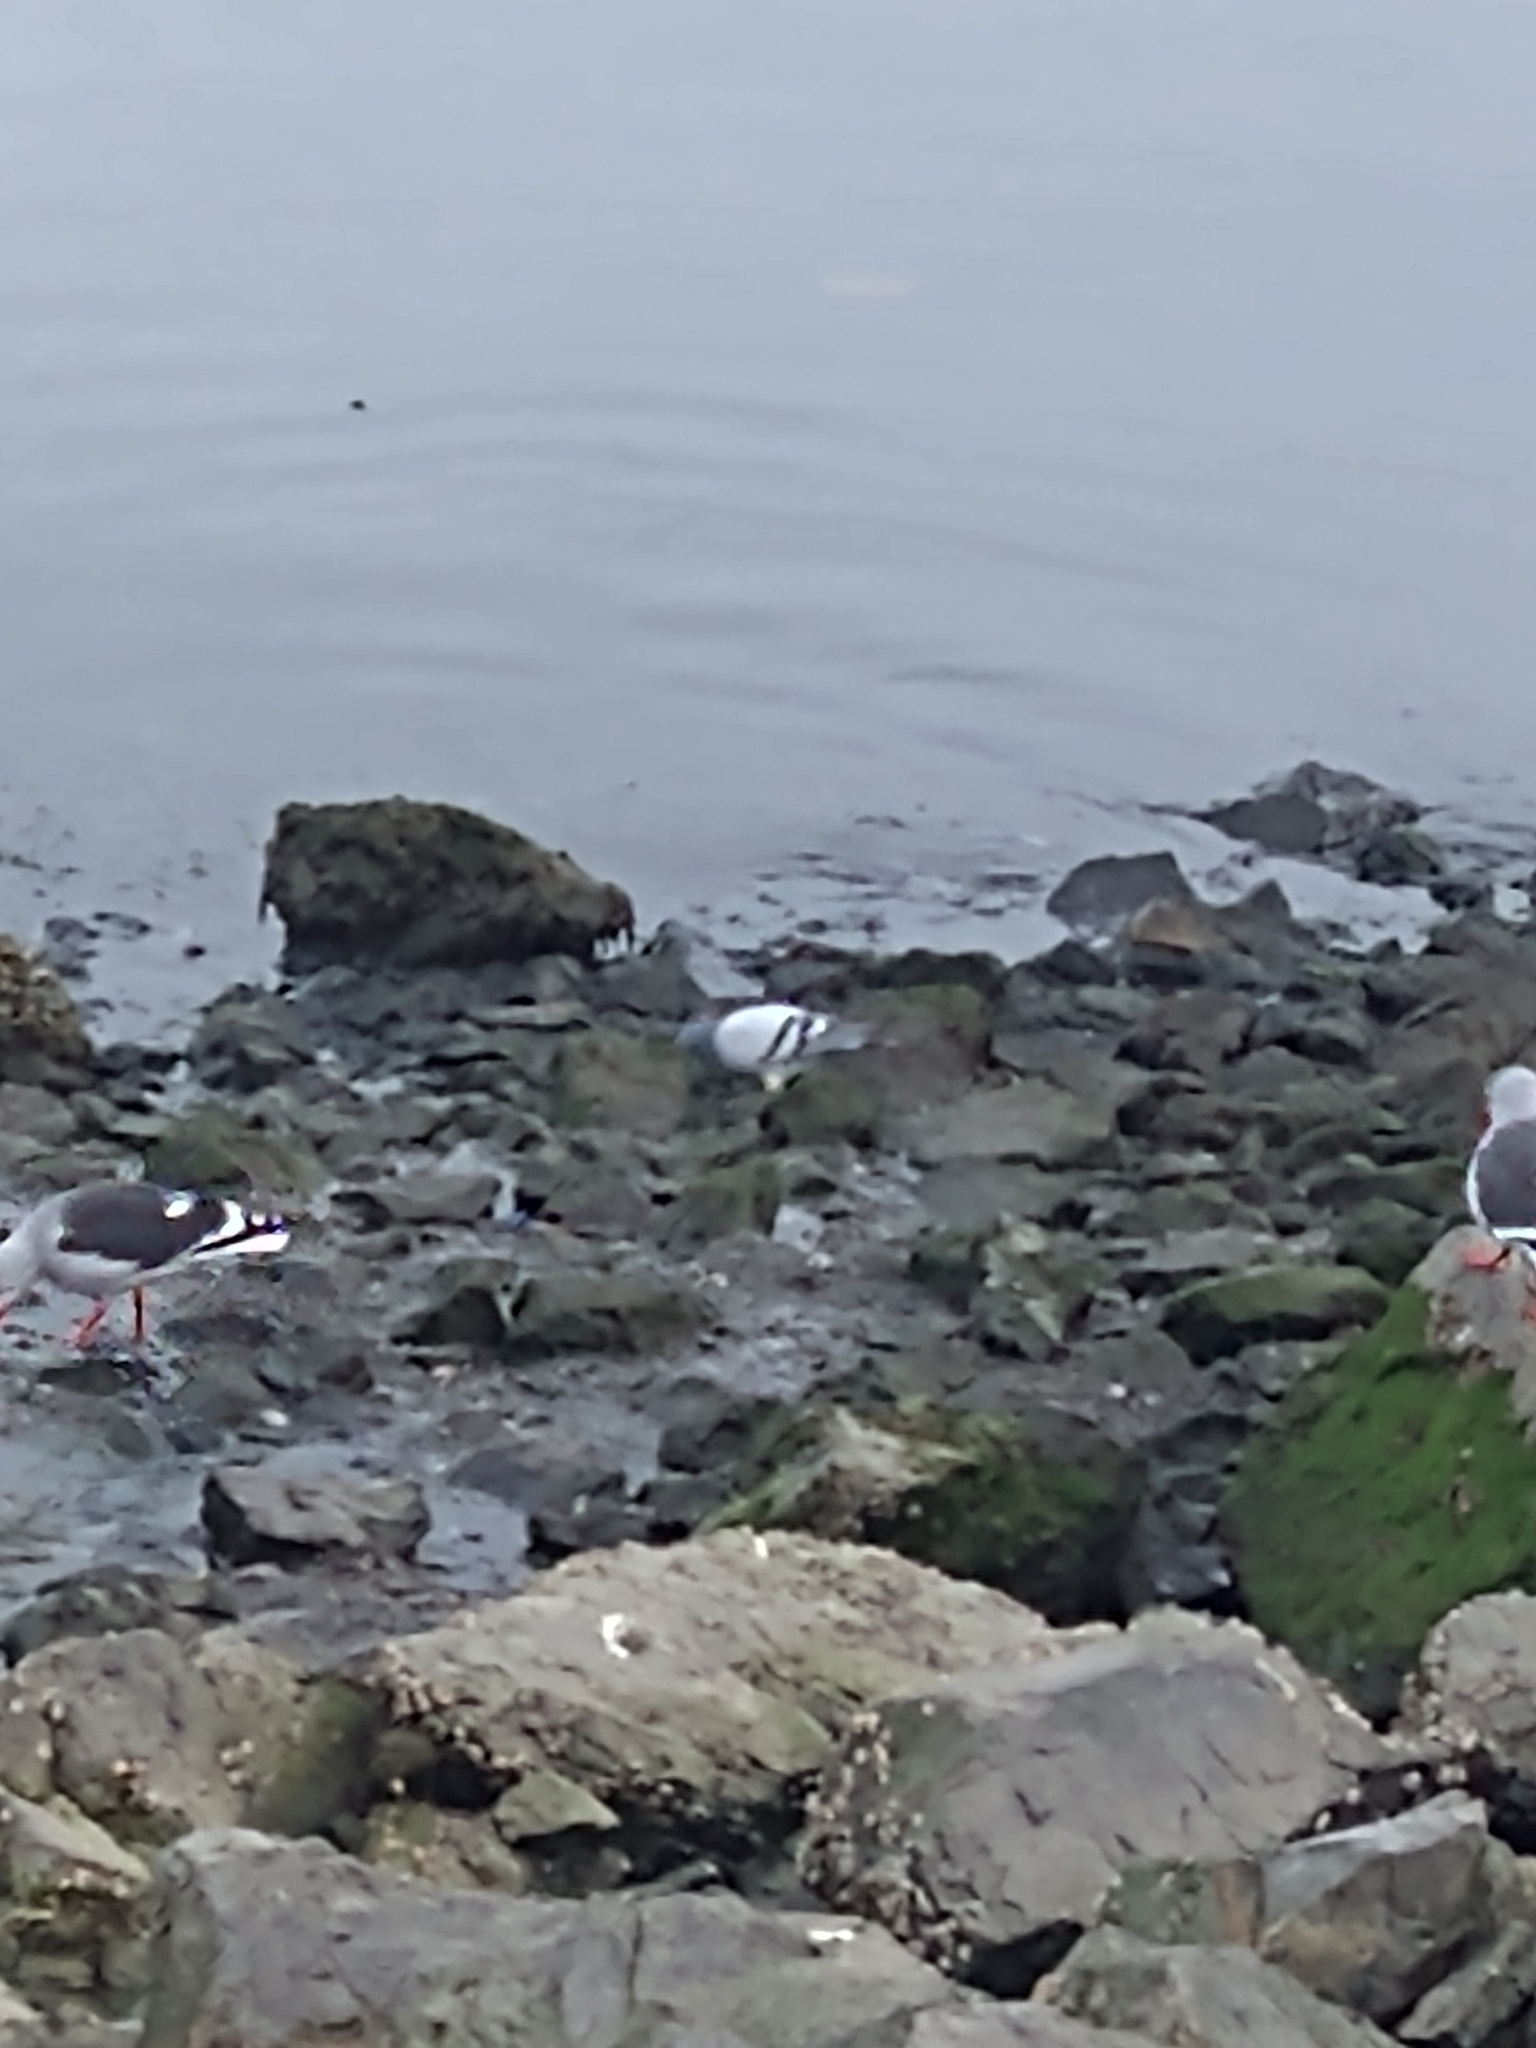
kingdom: Animalia
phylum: Chordata
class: Aves
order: Columbiformes
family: Columbidae
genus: Columba
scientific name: Columba livia
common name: Rock pigeon
